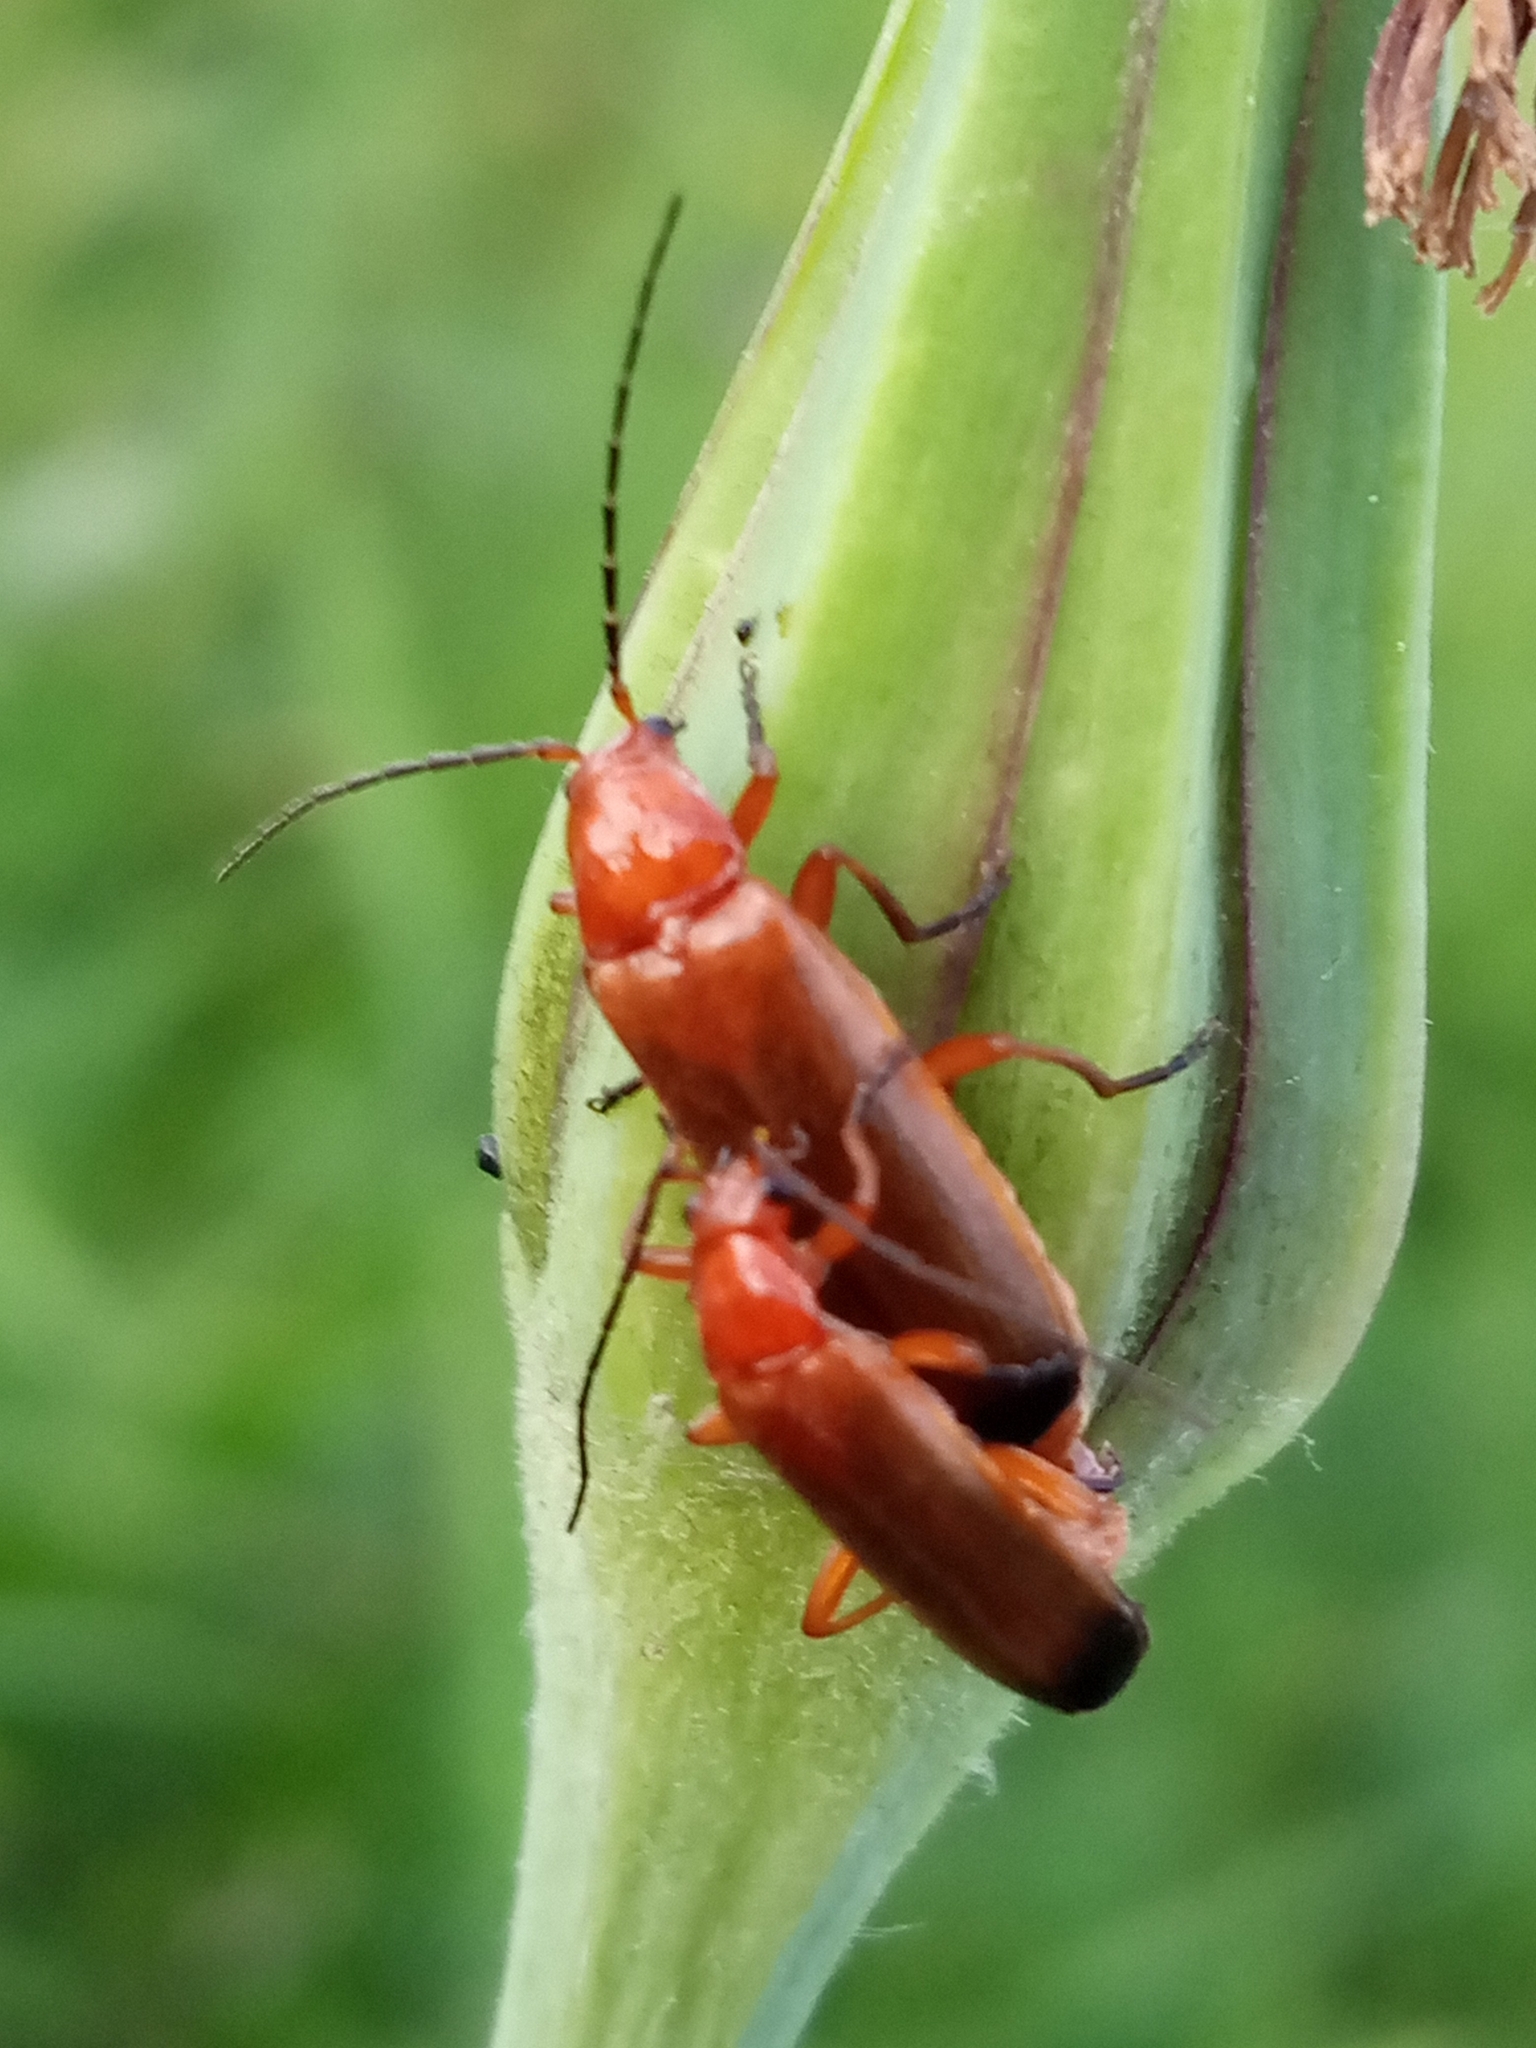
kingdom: Animalia
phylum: Arthropoda
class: Insecta
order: Coleoptera
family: Cantharidae
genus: Rhagonycha
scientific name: Rhagonycha fulva
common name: Common red soldier beetle
